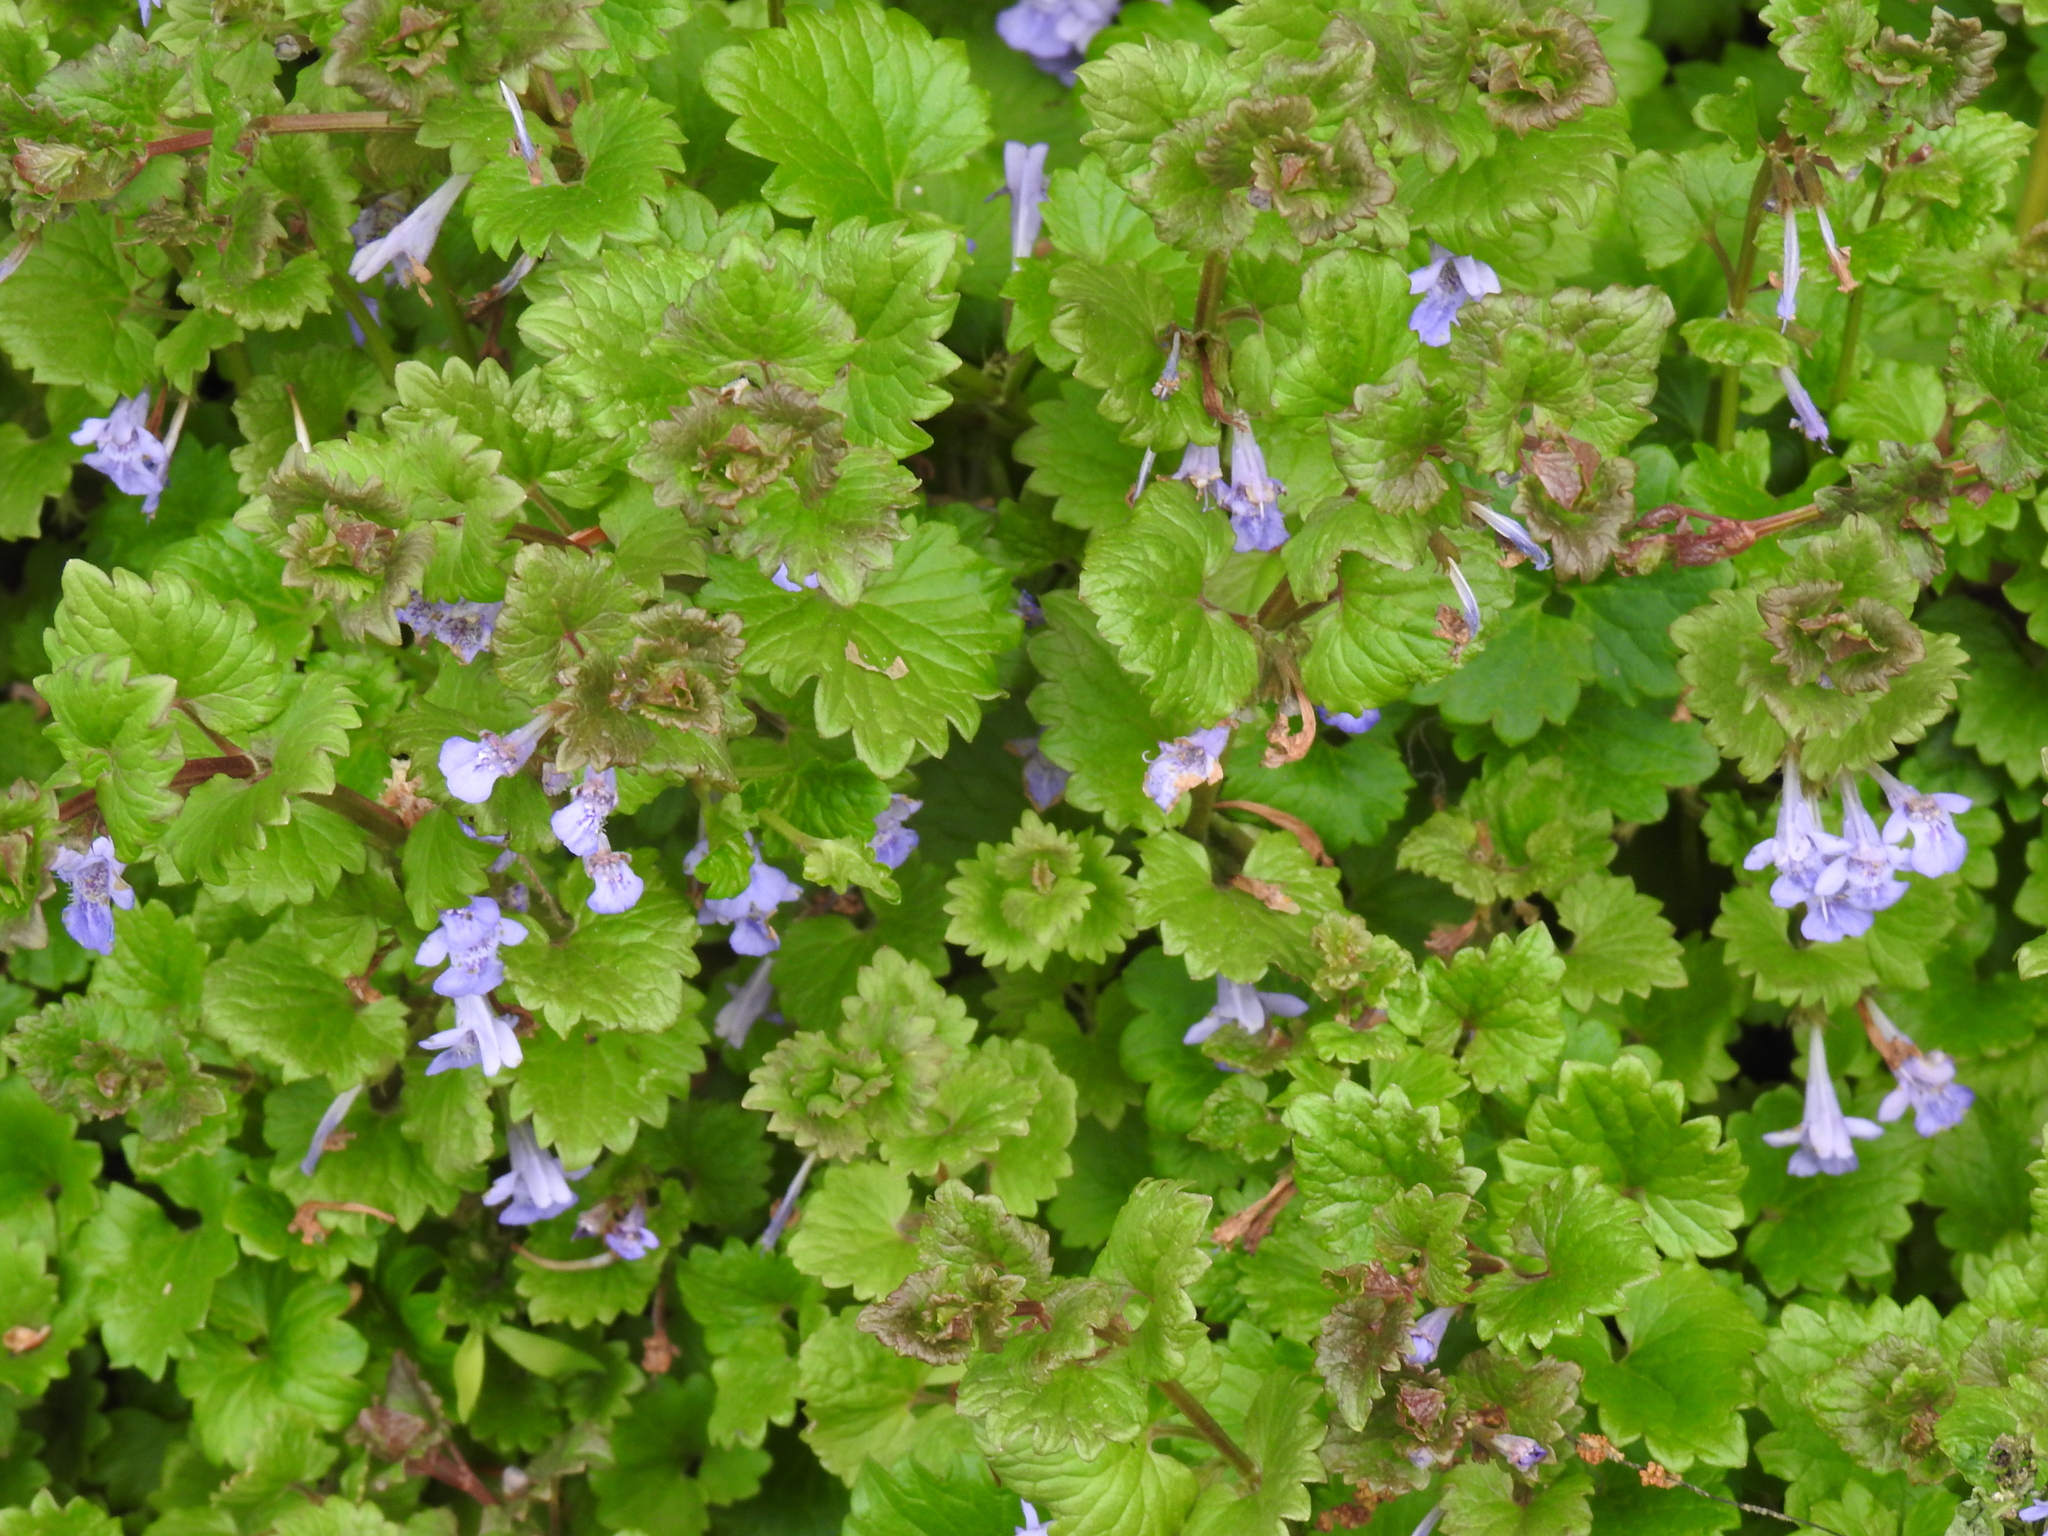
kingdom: Plantae
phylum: Tracheophyta
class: Magnoliopsida
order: Lamiales
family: Lamiaceae
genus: Glechoma
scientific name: Glechoma hederacea
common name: Ground ivy
